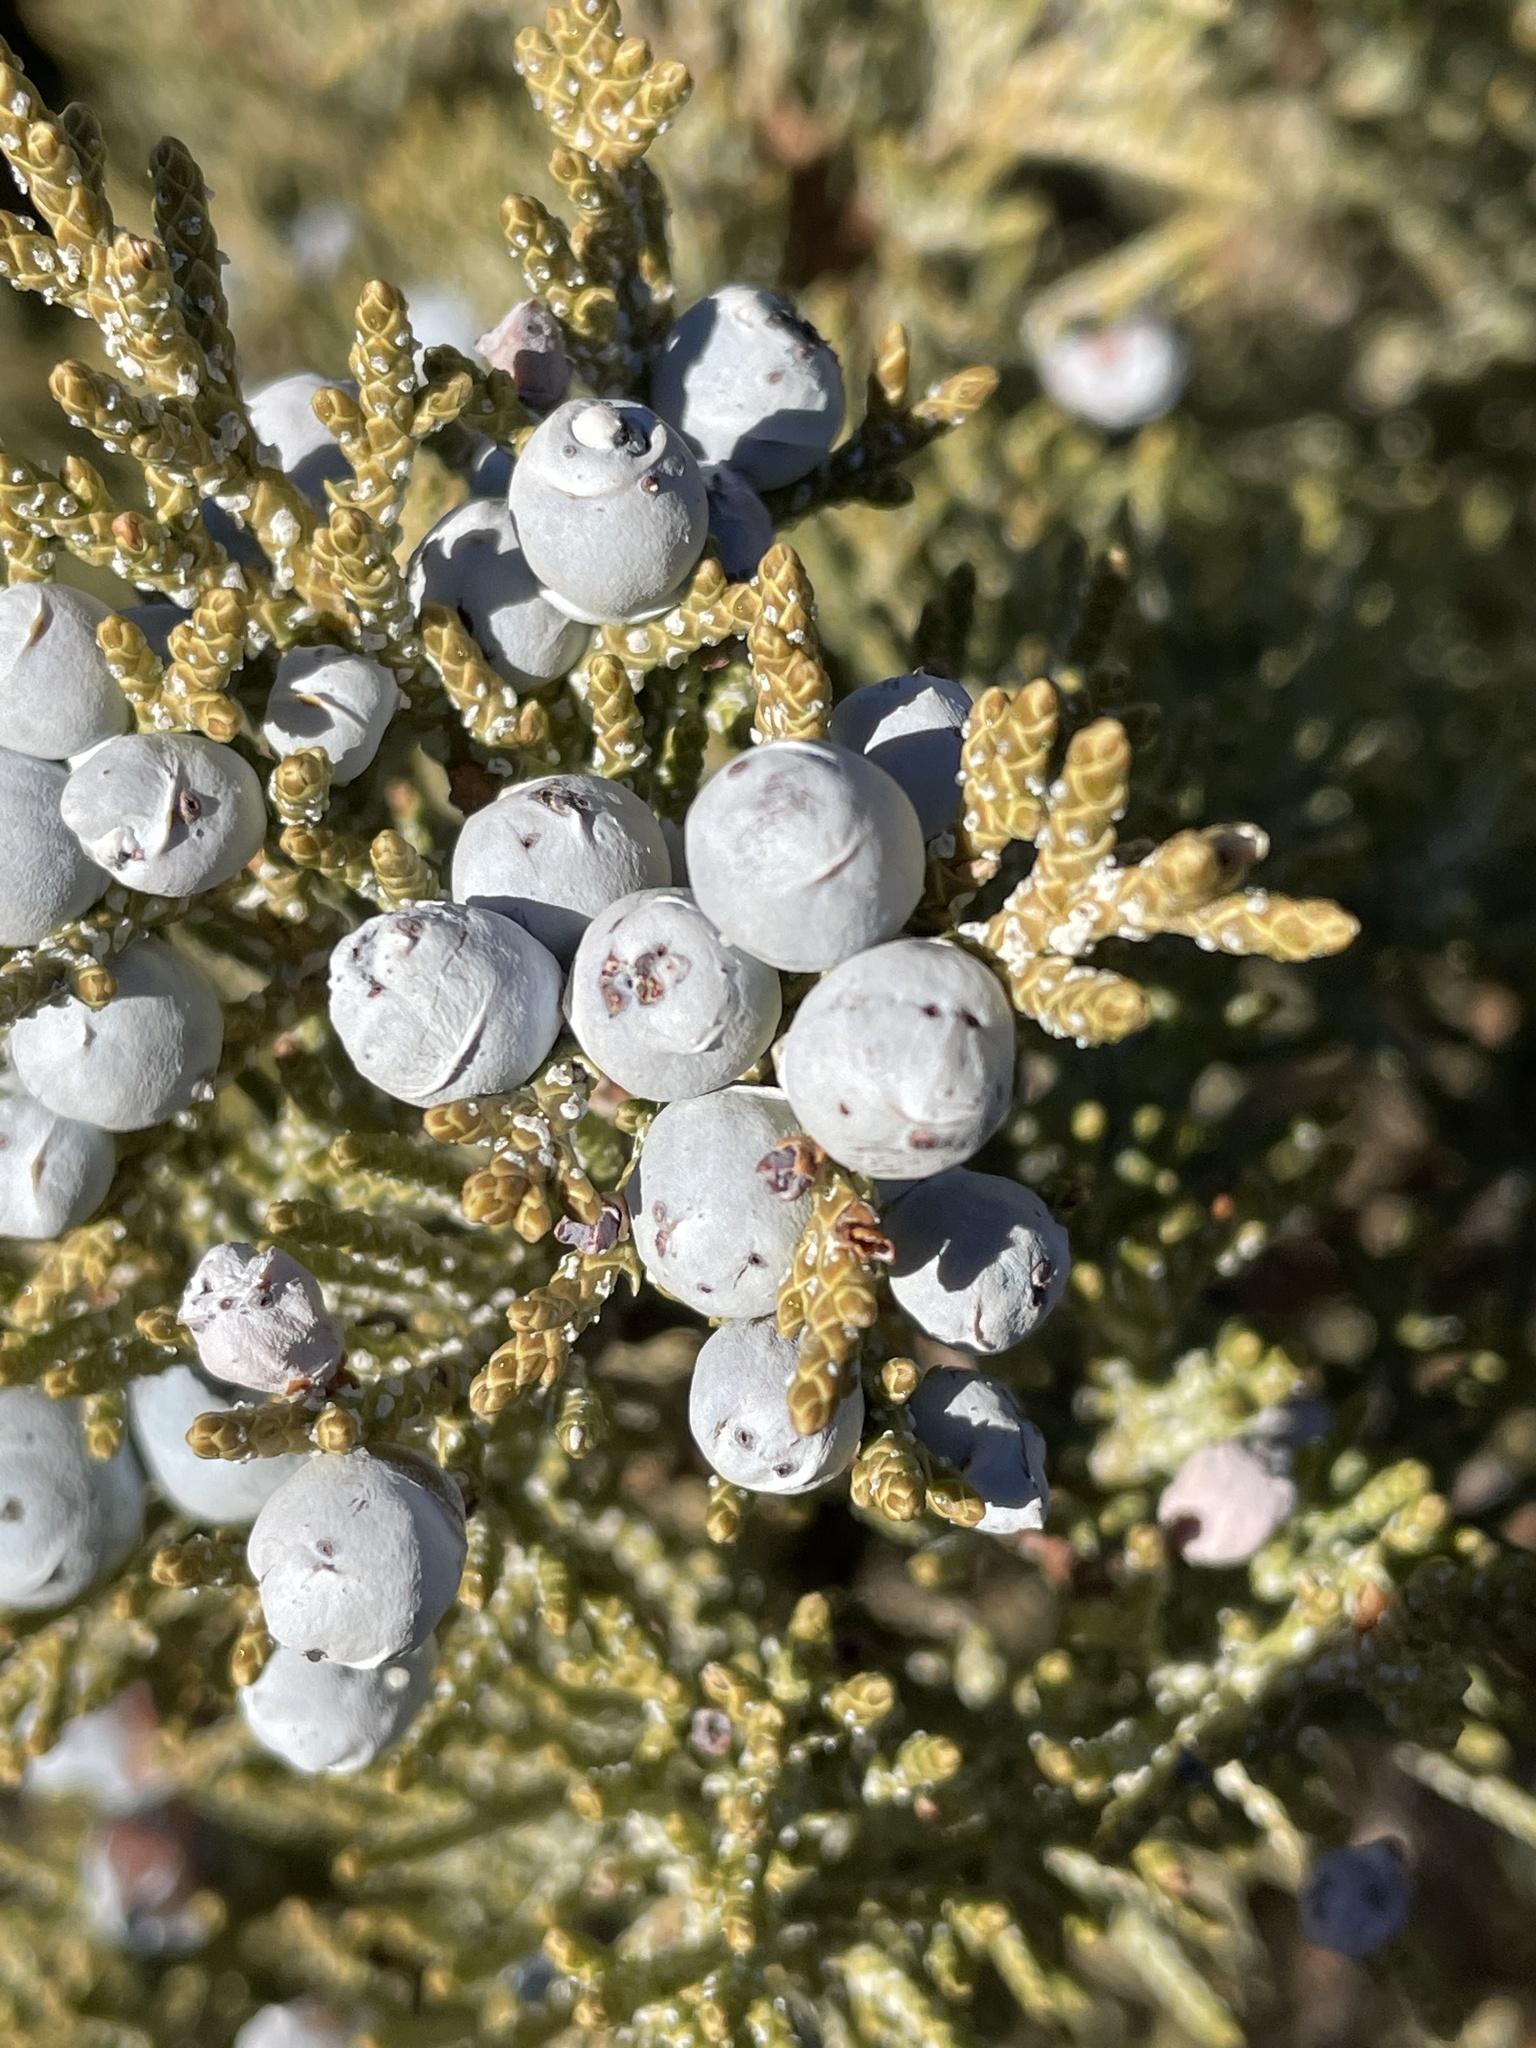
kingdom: Plantae
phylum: Tracheophyta
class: Pinopsida
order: Pinales
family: Cupressaceae
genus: Juniperus
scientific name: Juniperus occidentalis
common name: Western juniper
